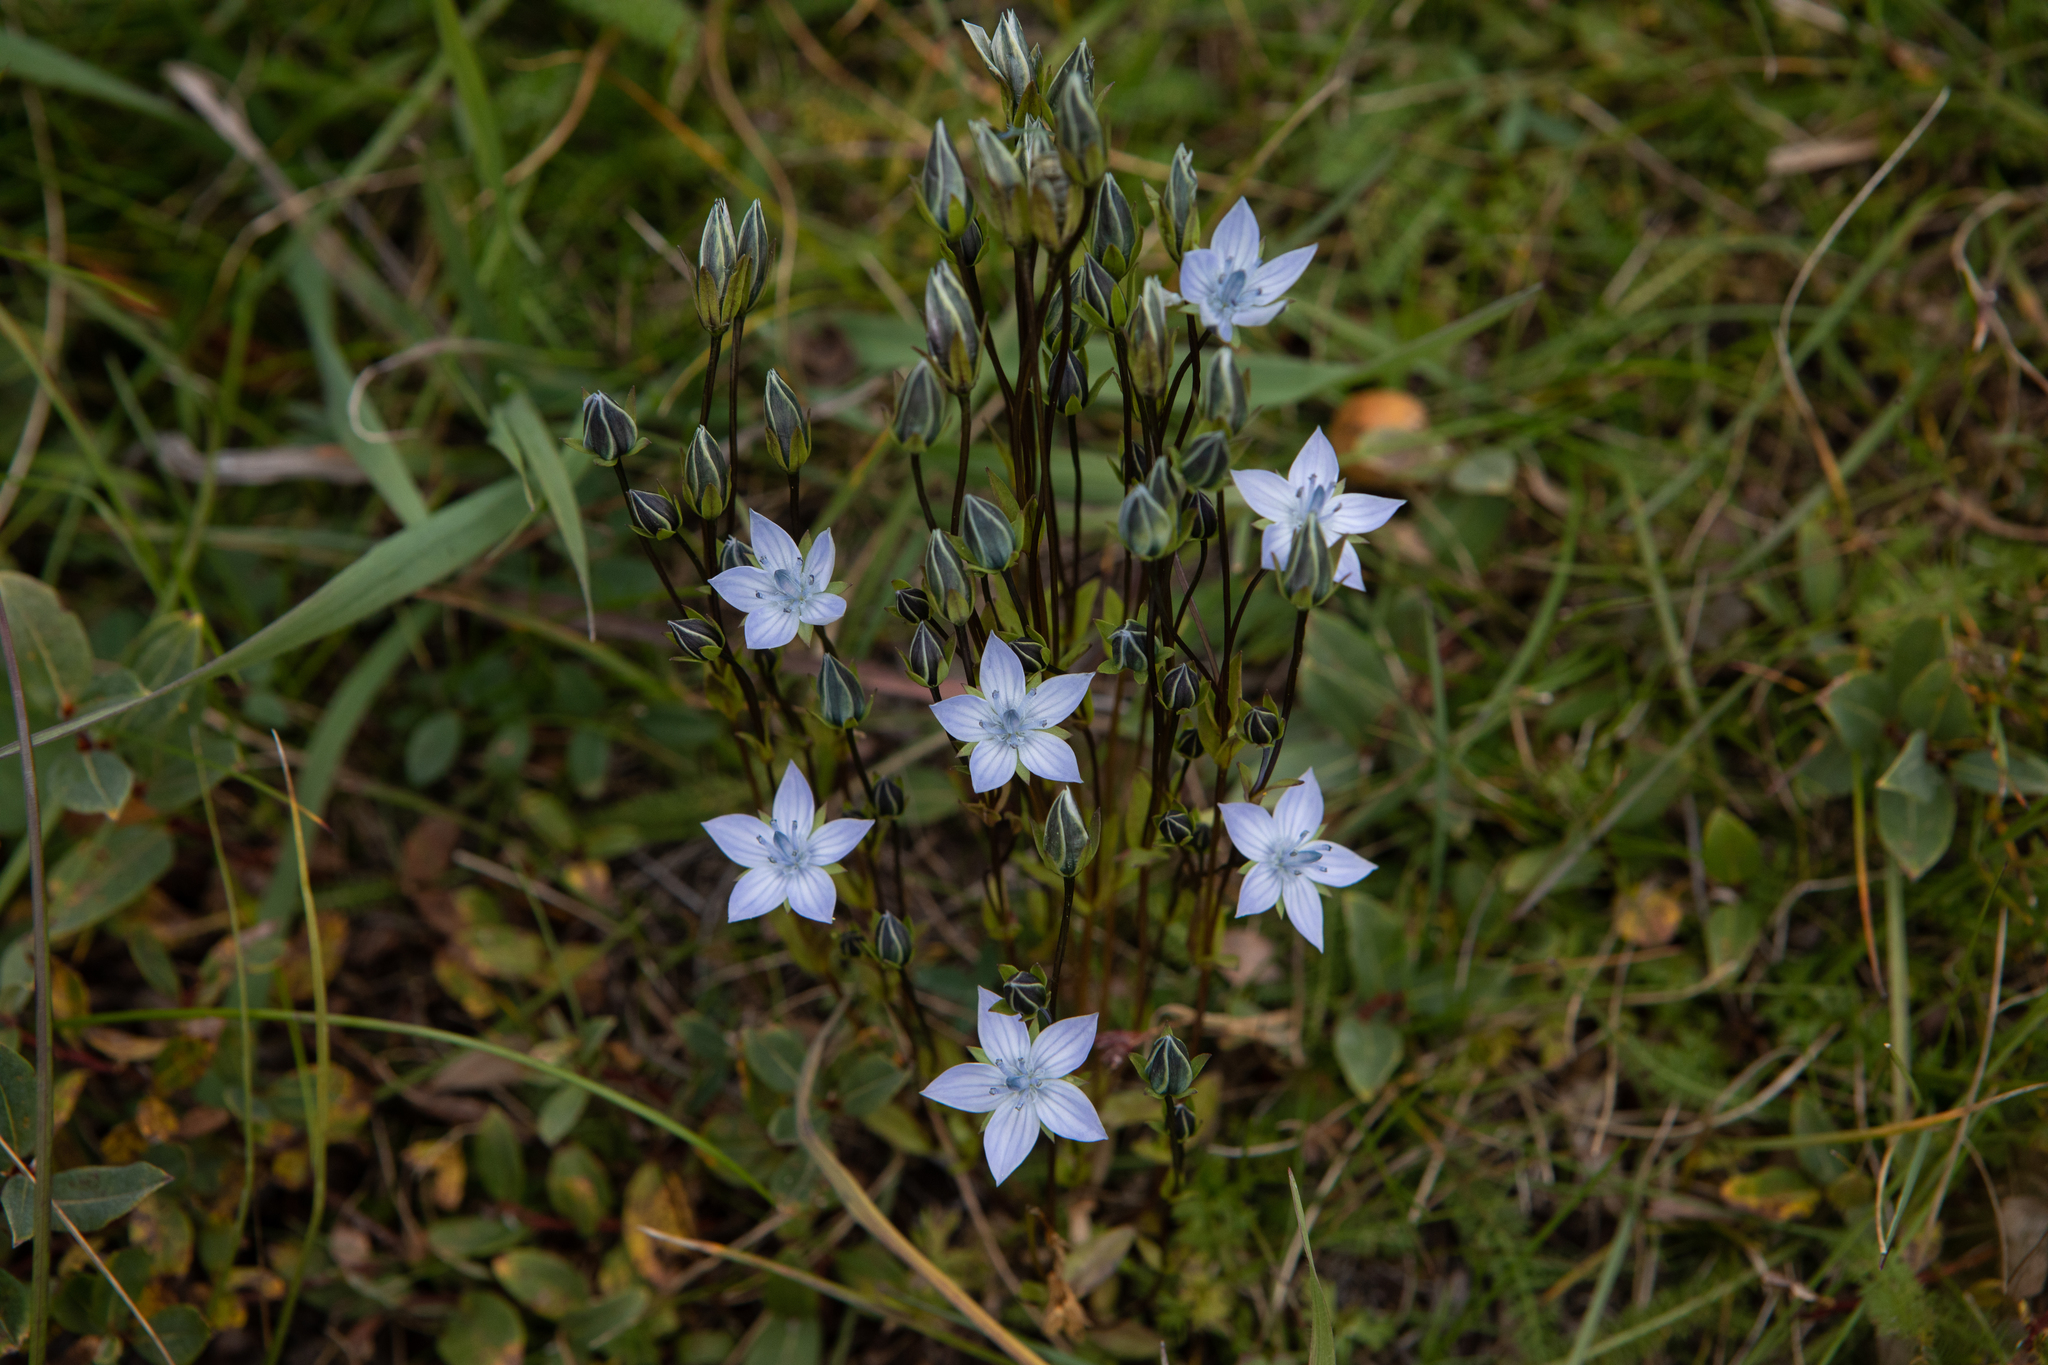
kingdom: Plantae
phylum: Tracheophyta
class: Magnoliopsida
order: Gentianales
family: Gentianaceae
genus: Lomatogonium
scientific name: Lomatogonium carinthiacum
